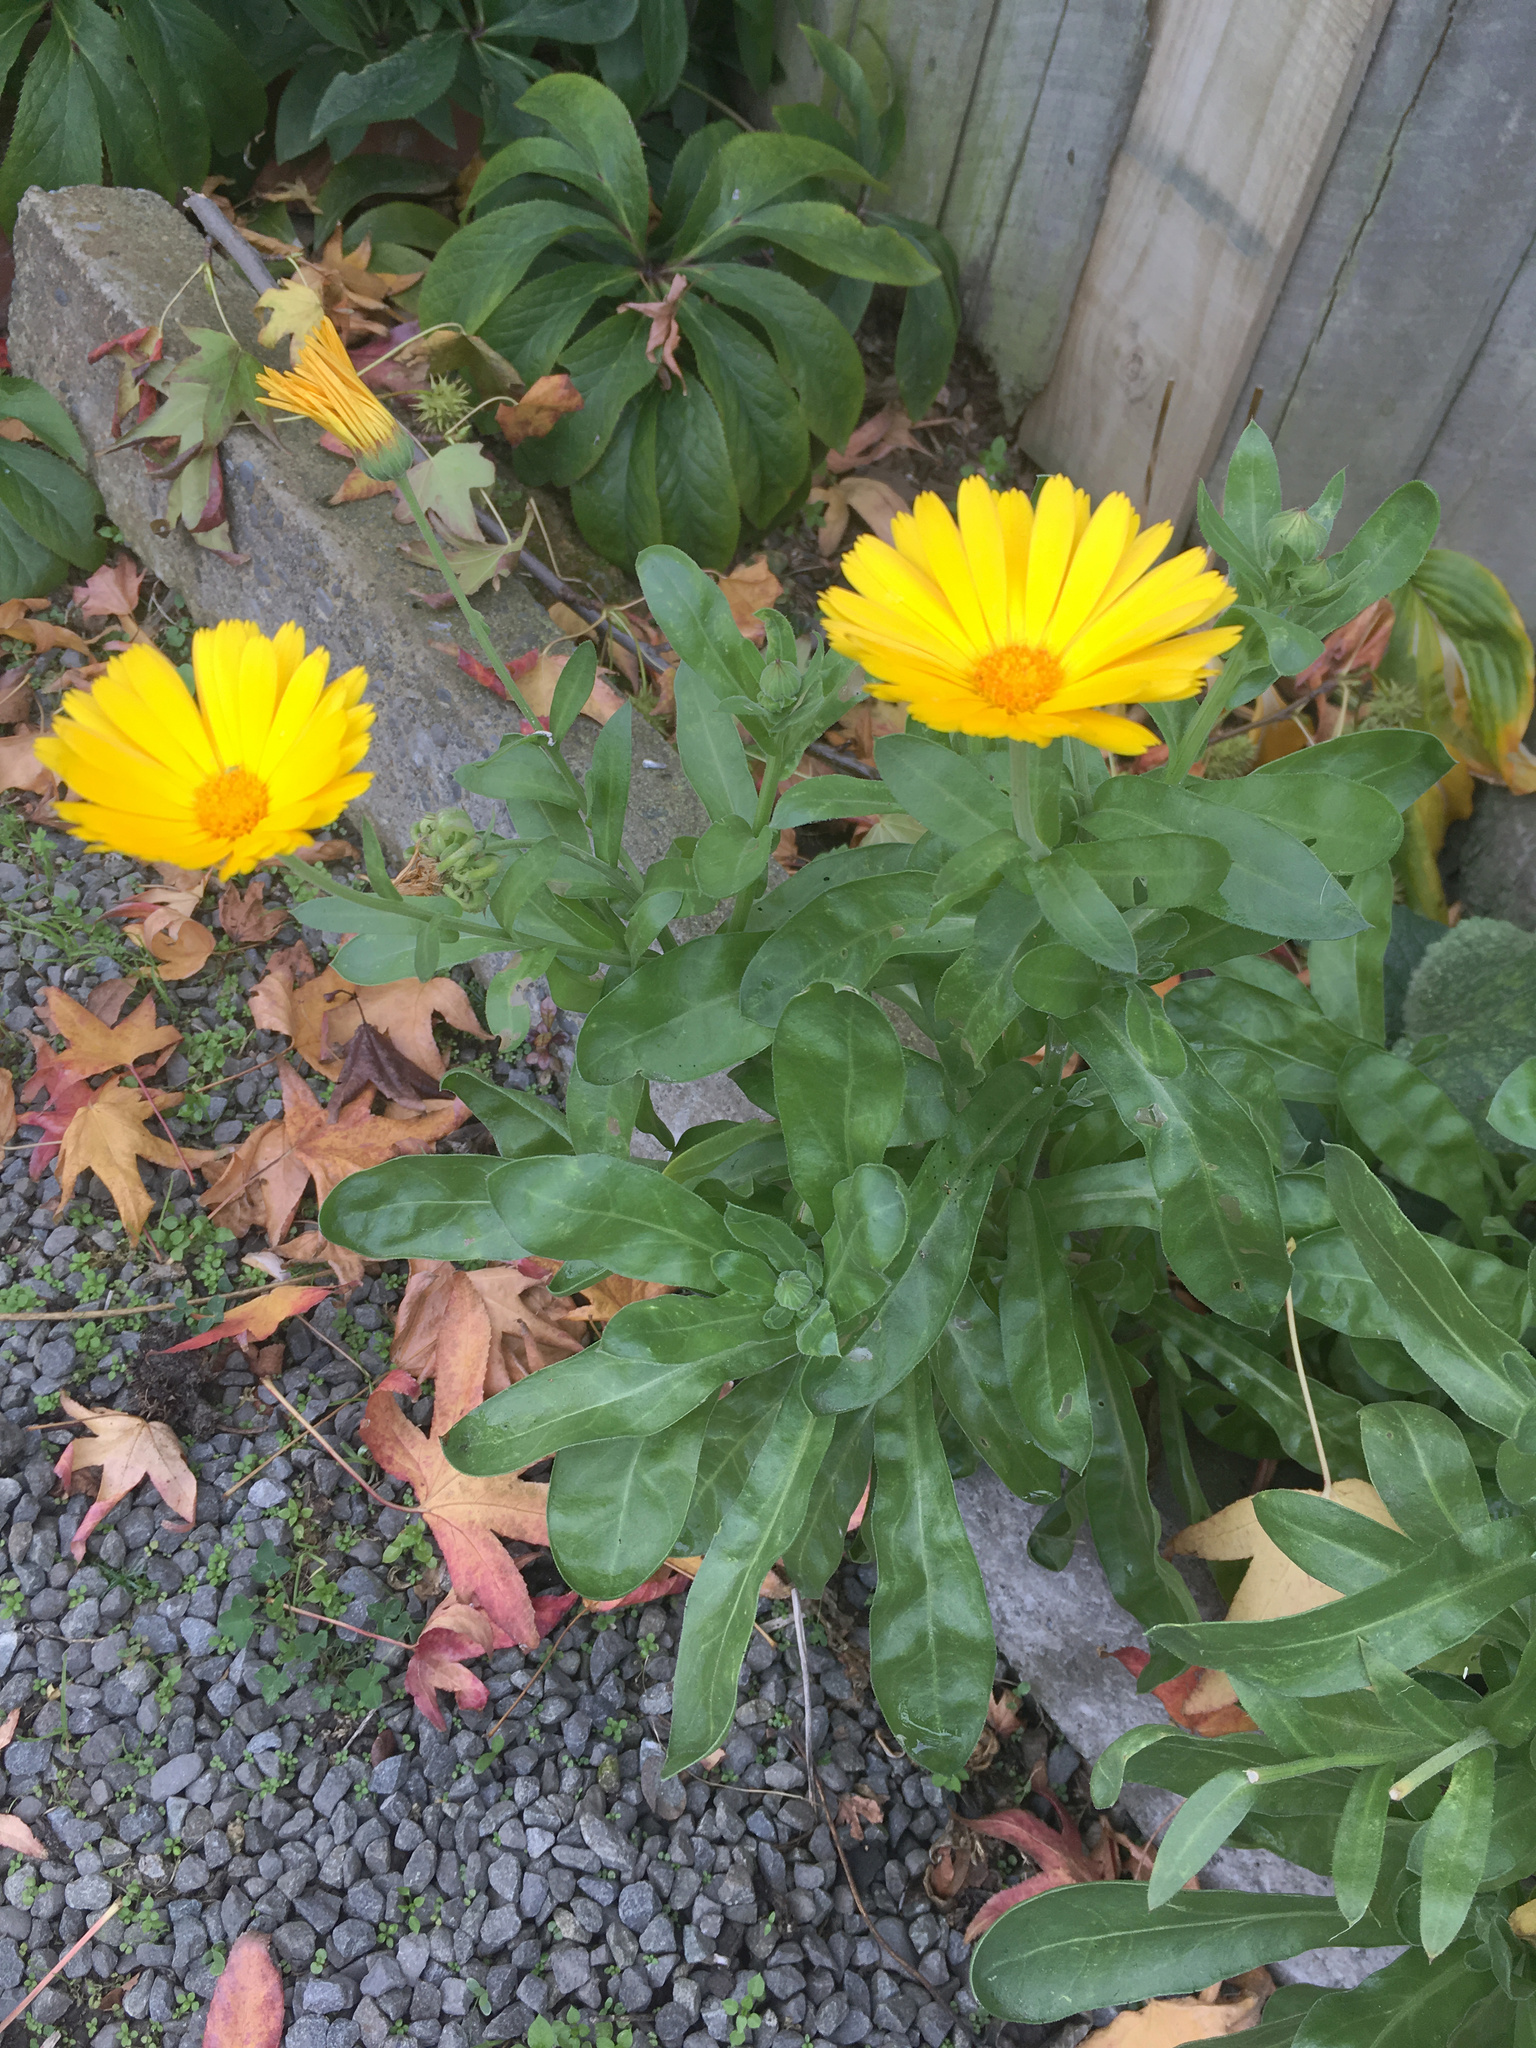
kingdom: Plantae
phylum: Tracheophyta
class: Magnoliopsida
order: Asterales
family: Asteraceae
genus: Calendula
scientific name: Calendula officinalis
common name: Pot marigold
